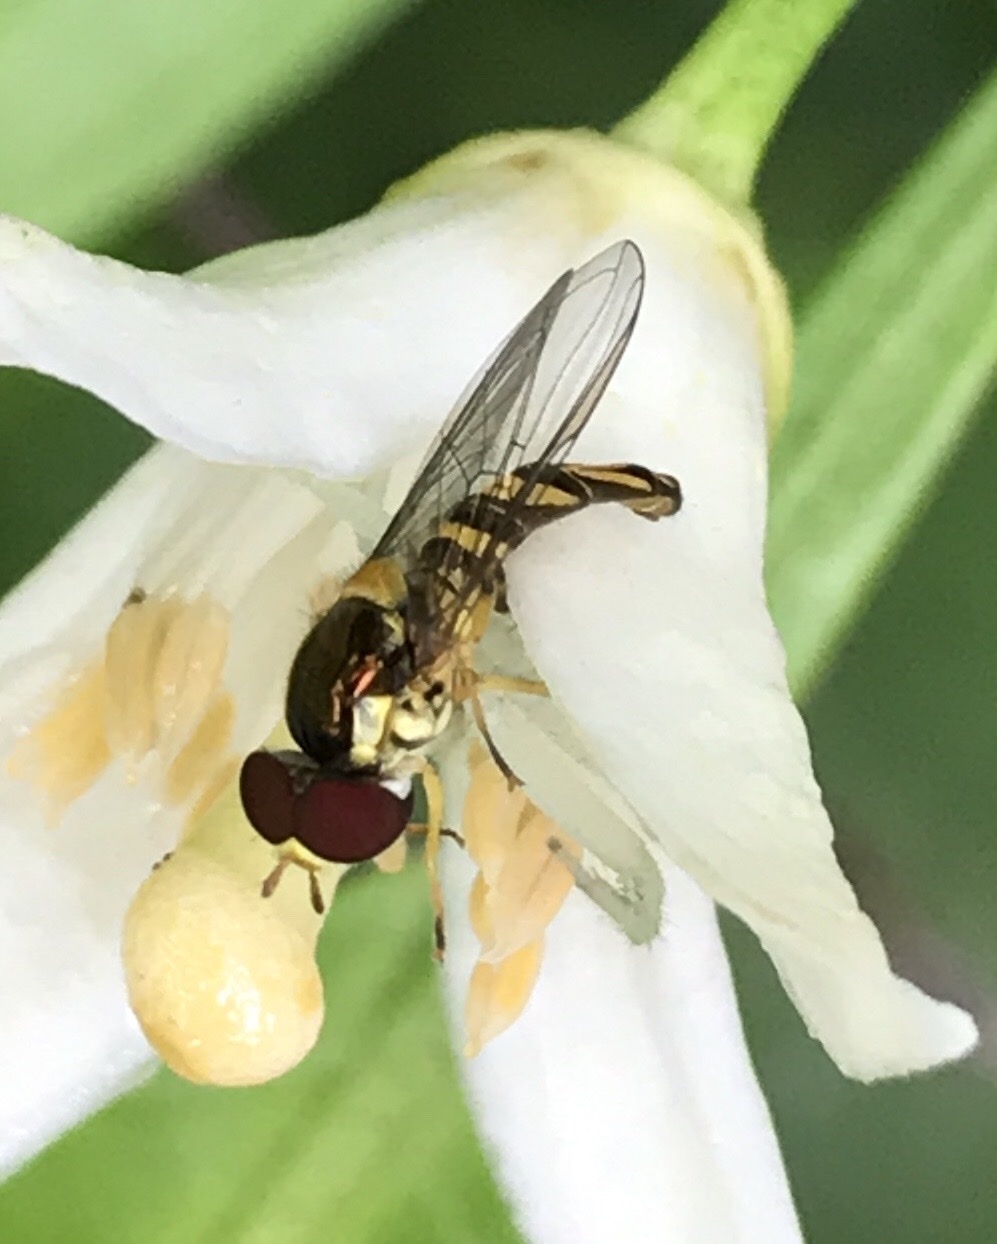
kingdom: Animalia
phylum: Arthropoda
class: Insecta
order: Diptera
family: Syrphidae
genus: Allograpta
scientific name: Allograpta obliqua
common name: Common oblique syrphid
